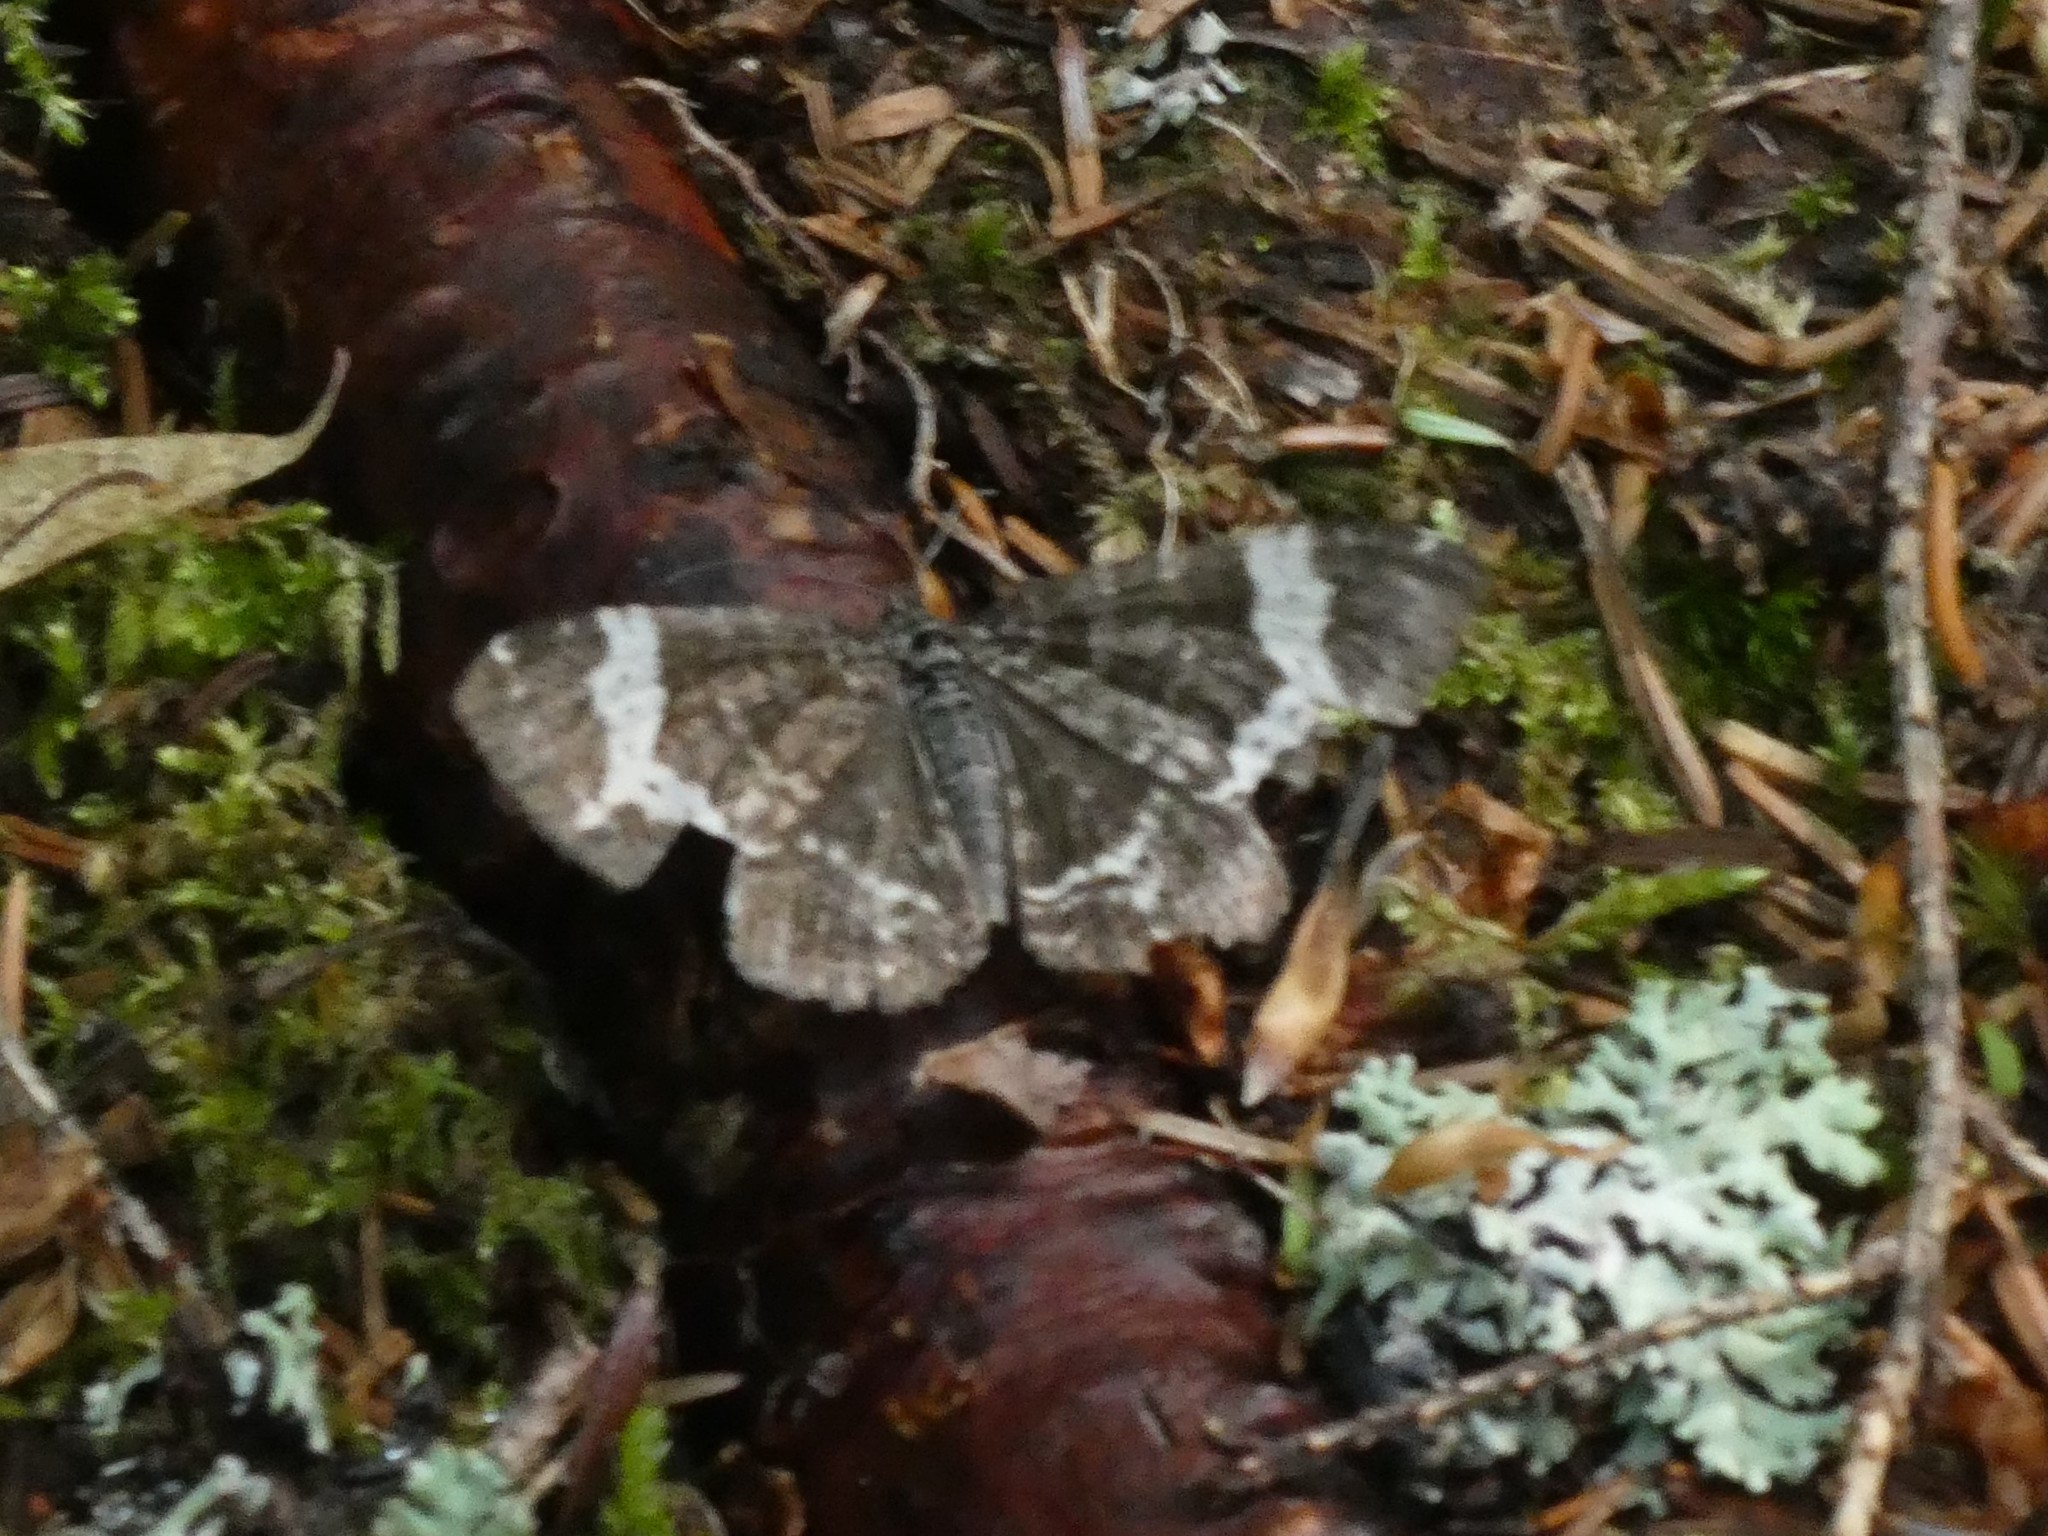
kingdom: Animalia
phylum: Arthropoda
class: Insecta
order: Lepidoptera
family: Geometridae
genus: Rheumaptera
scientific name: Rheumaptera
